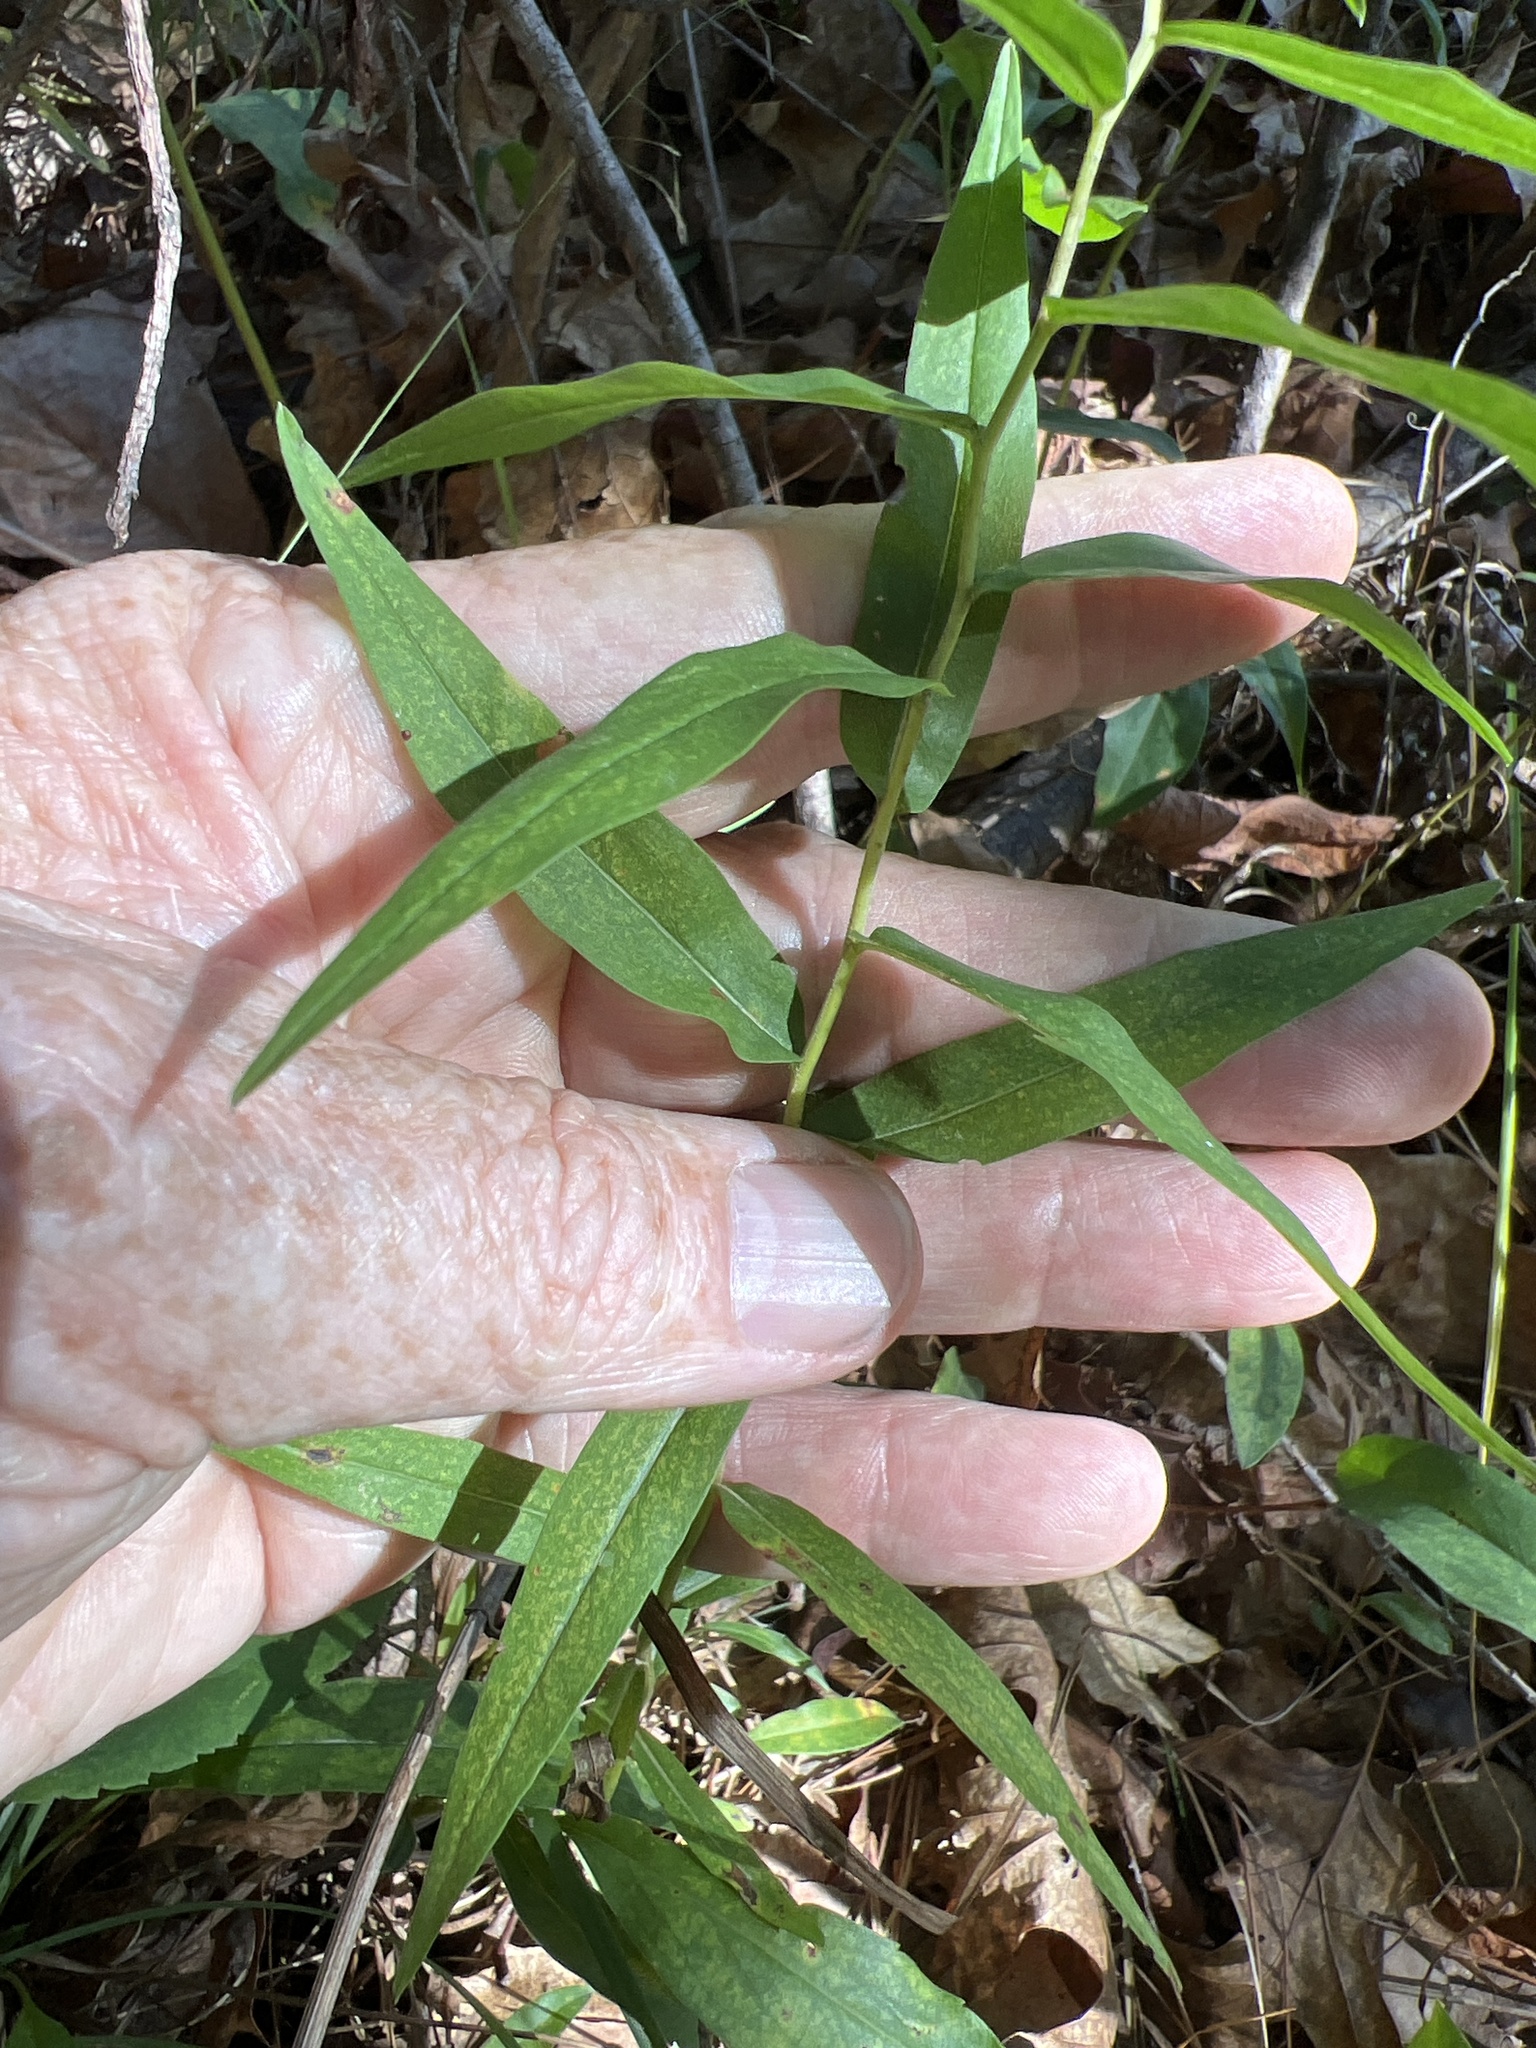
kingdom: Plantae
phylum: Tracheophyta
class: Magnoliopsida
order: Asterales
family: Asteraceae
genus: Solidago
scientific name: Solidago odora
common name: Anise-scented goldenrod
